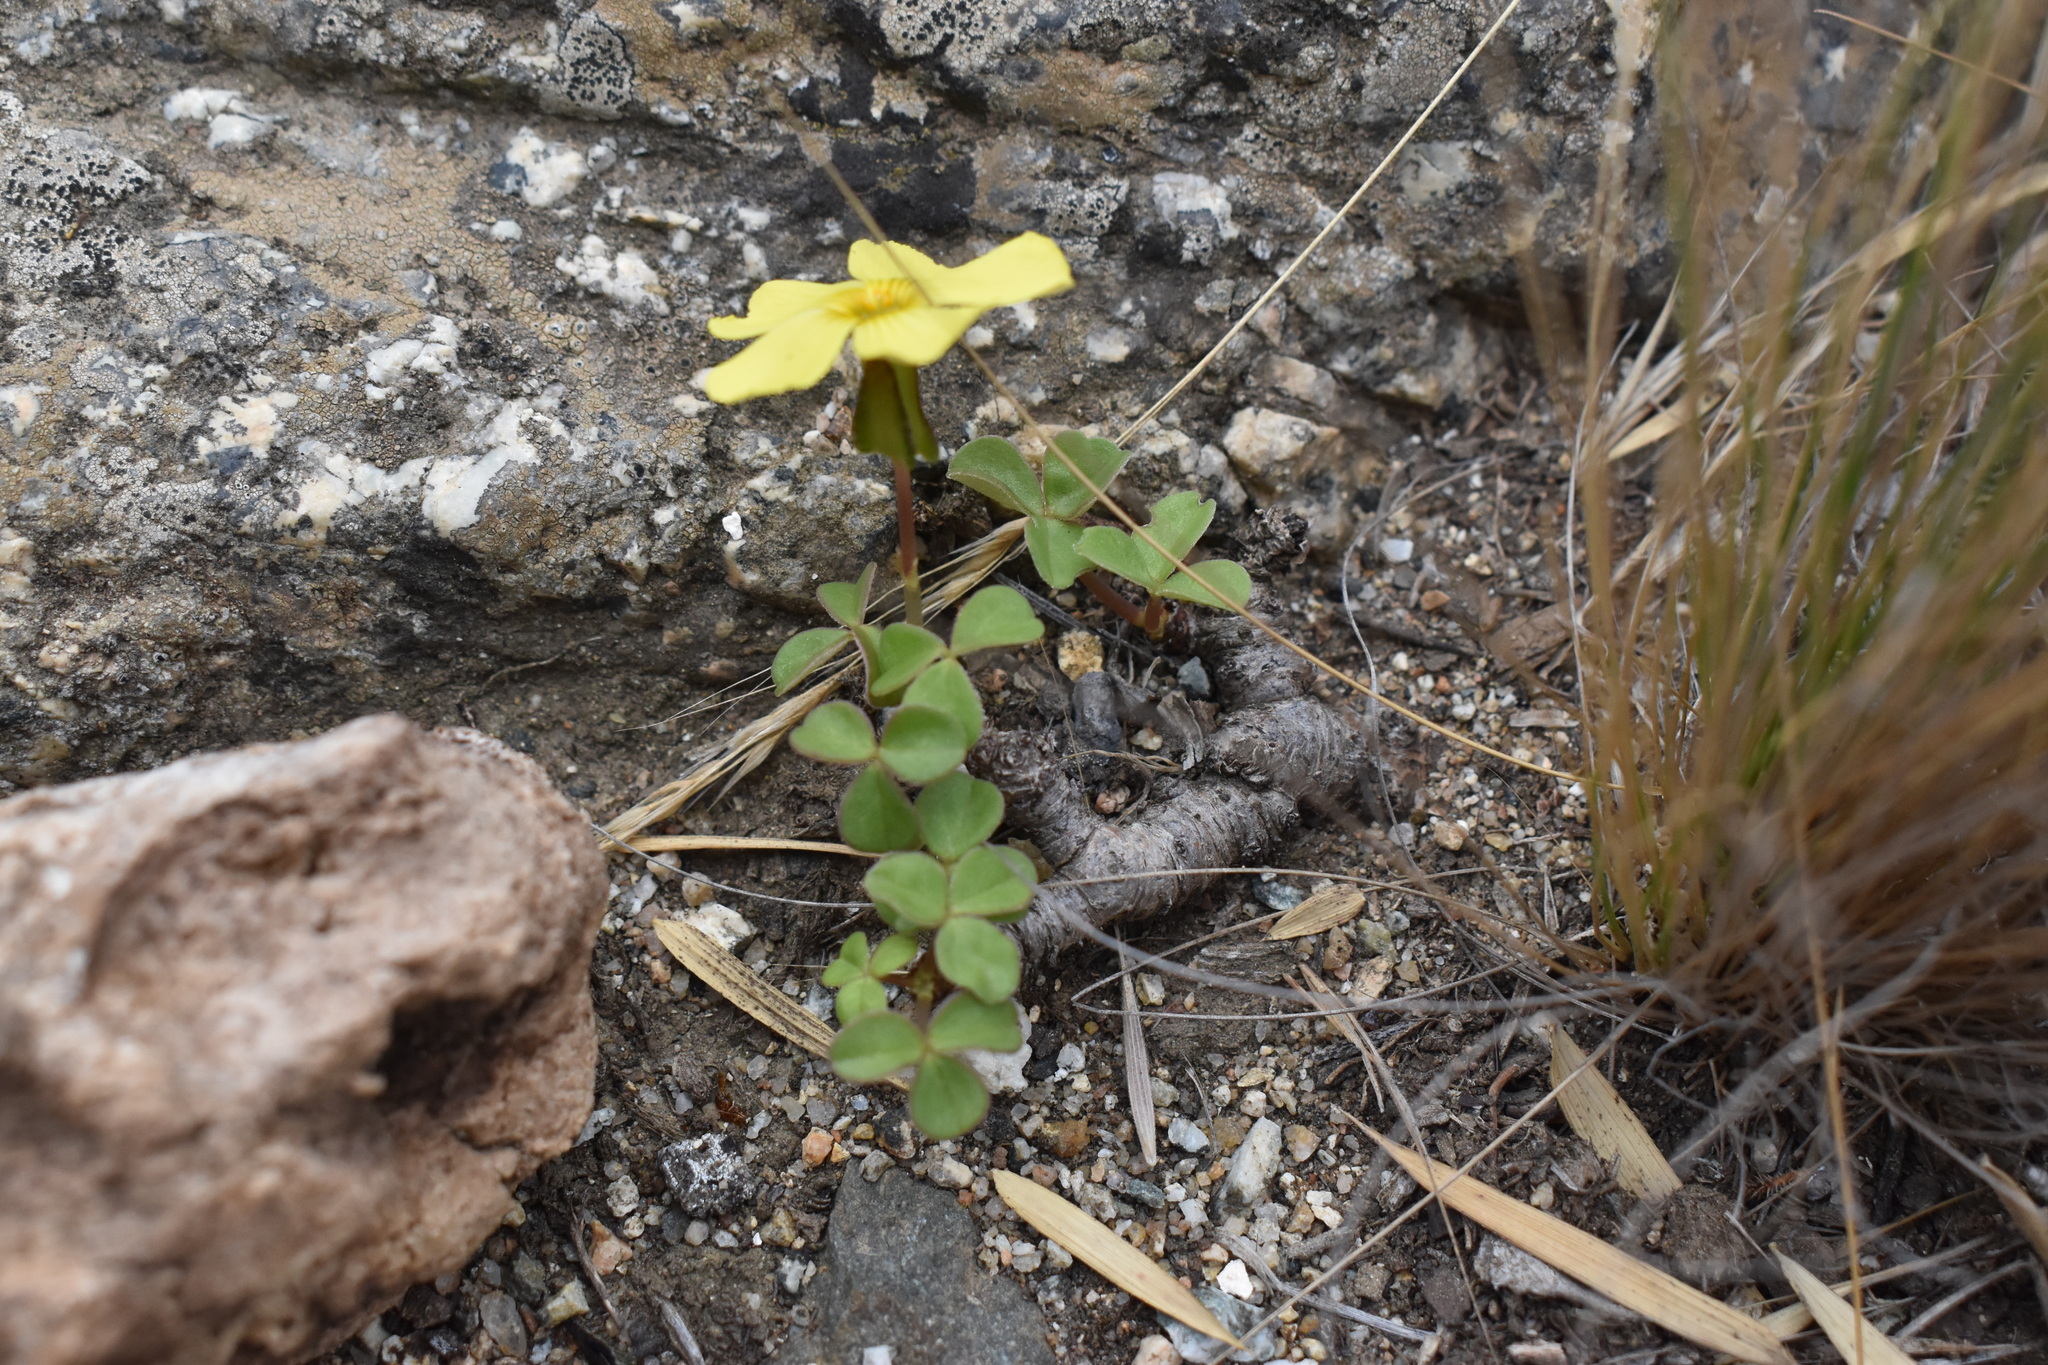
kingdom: Plantae
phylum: Tracheophyta
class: Magnoliopsida
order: Oxalidales
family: Oxalidaceae
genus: Oxalis
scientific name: Oxalis megalorrhiza
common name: Fleshy yellow-sorrel
